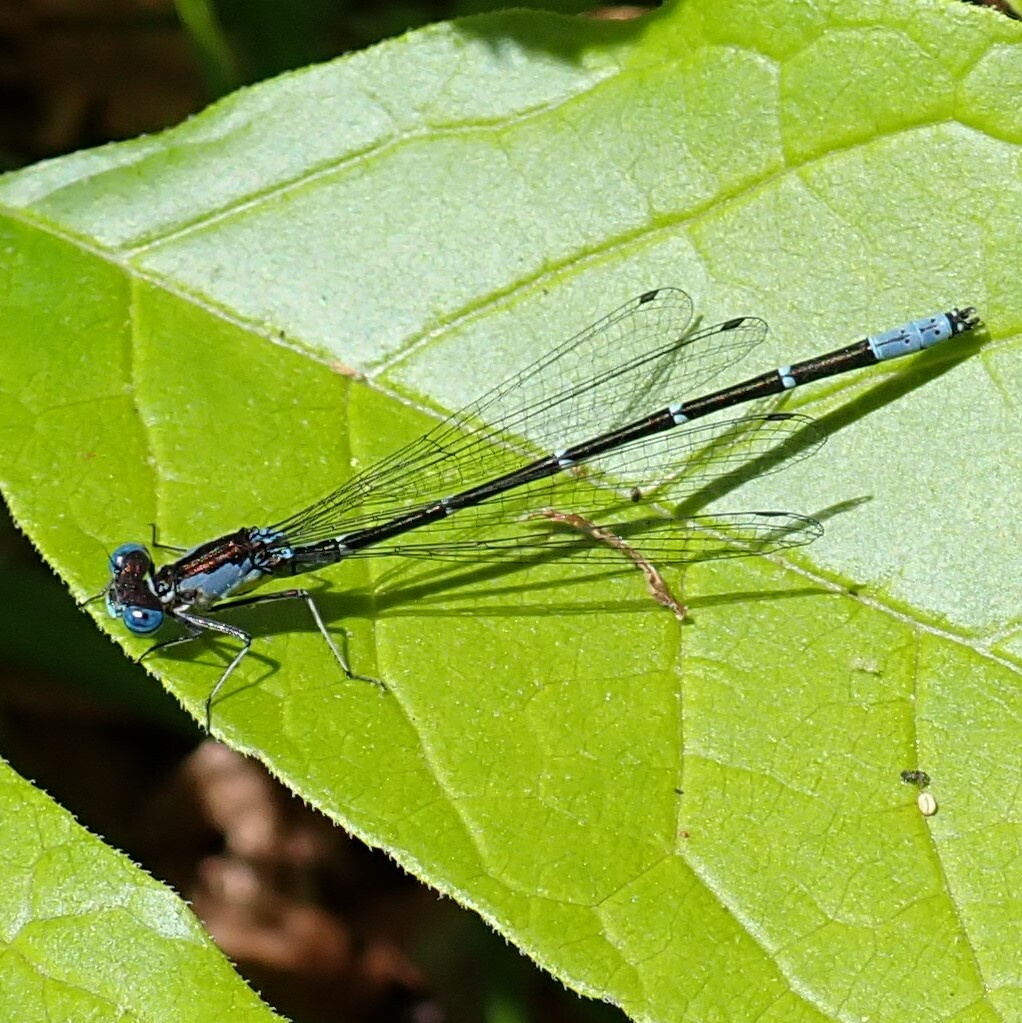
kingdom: Animalia
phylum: Arthropoda
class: Insecta
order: Odonata
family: Coenagrionidae
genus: Chromagrion
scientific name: Chromagrion conditum
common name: Aurora damsel
